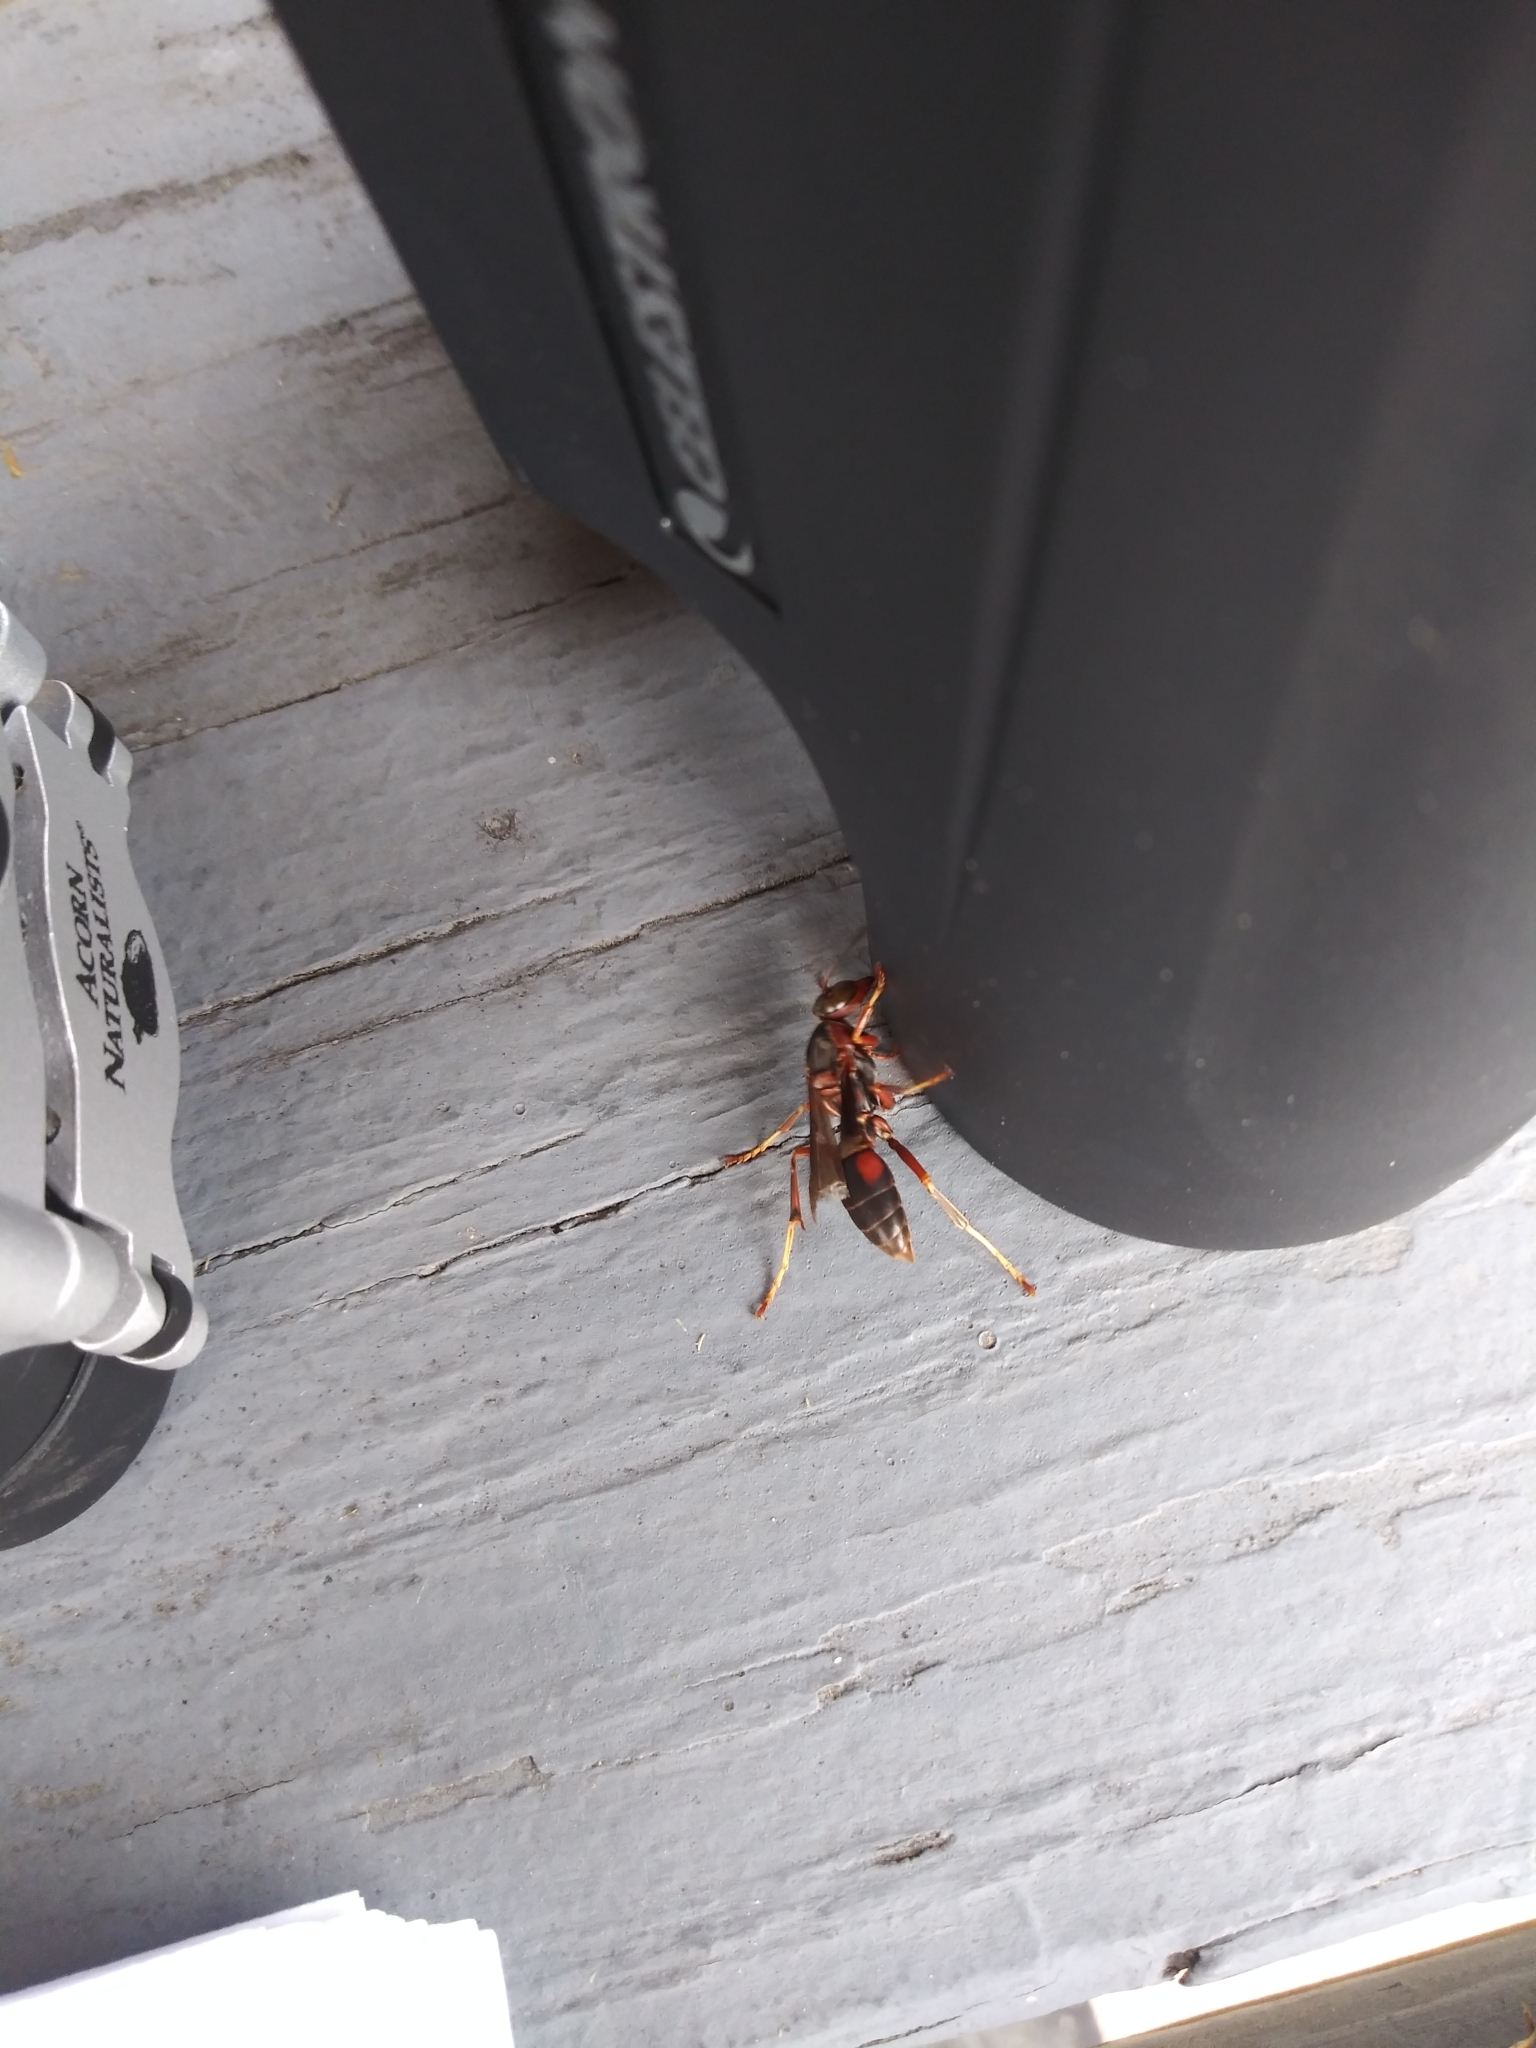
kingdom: Animalia
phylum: Arthropoda
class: Insecta
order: Hymenoptera
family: Eumenidae
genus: Polistes
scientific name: Polistes fuscatus
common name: Dark paper wasp
